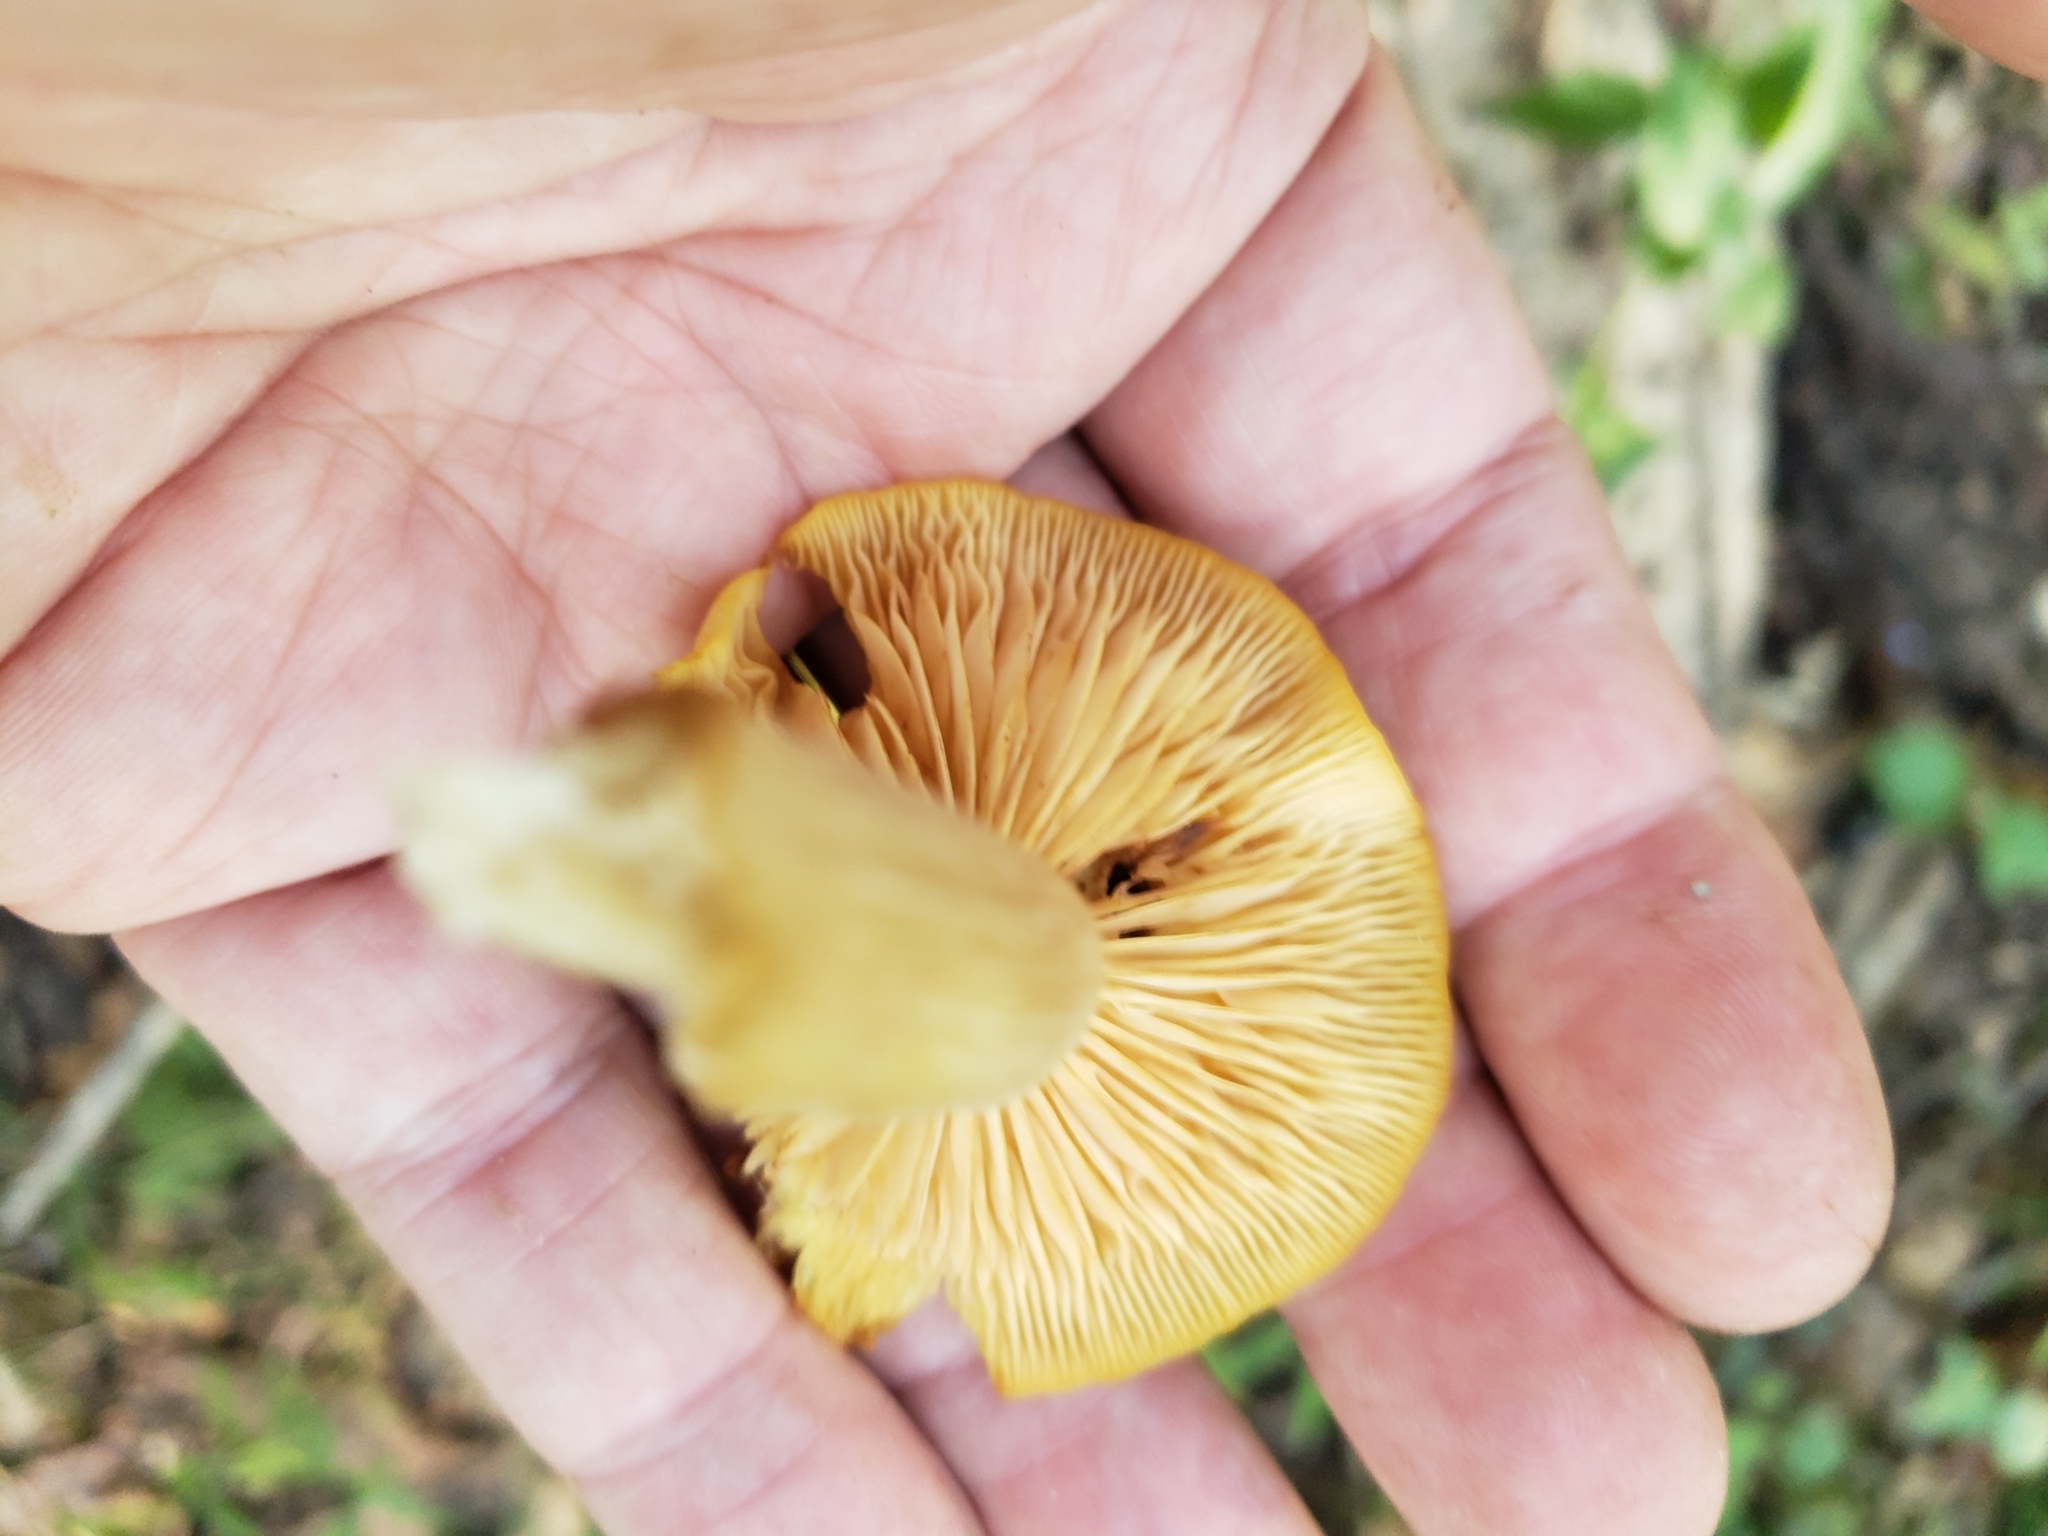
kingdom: Fungi
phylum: Basidiomycota
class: Agaricomycetes
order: Agaricales
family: Physalacriaceae
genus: Desarmillaria
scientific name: Desarmillaria caespitosa
